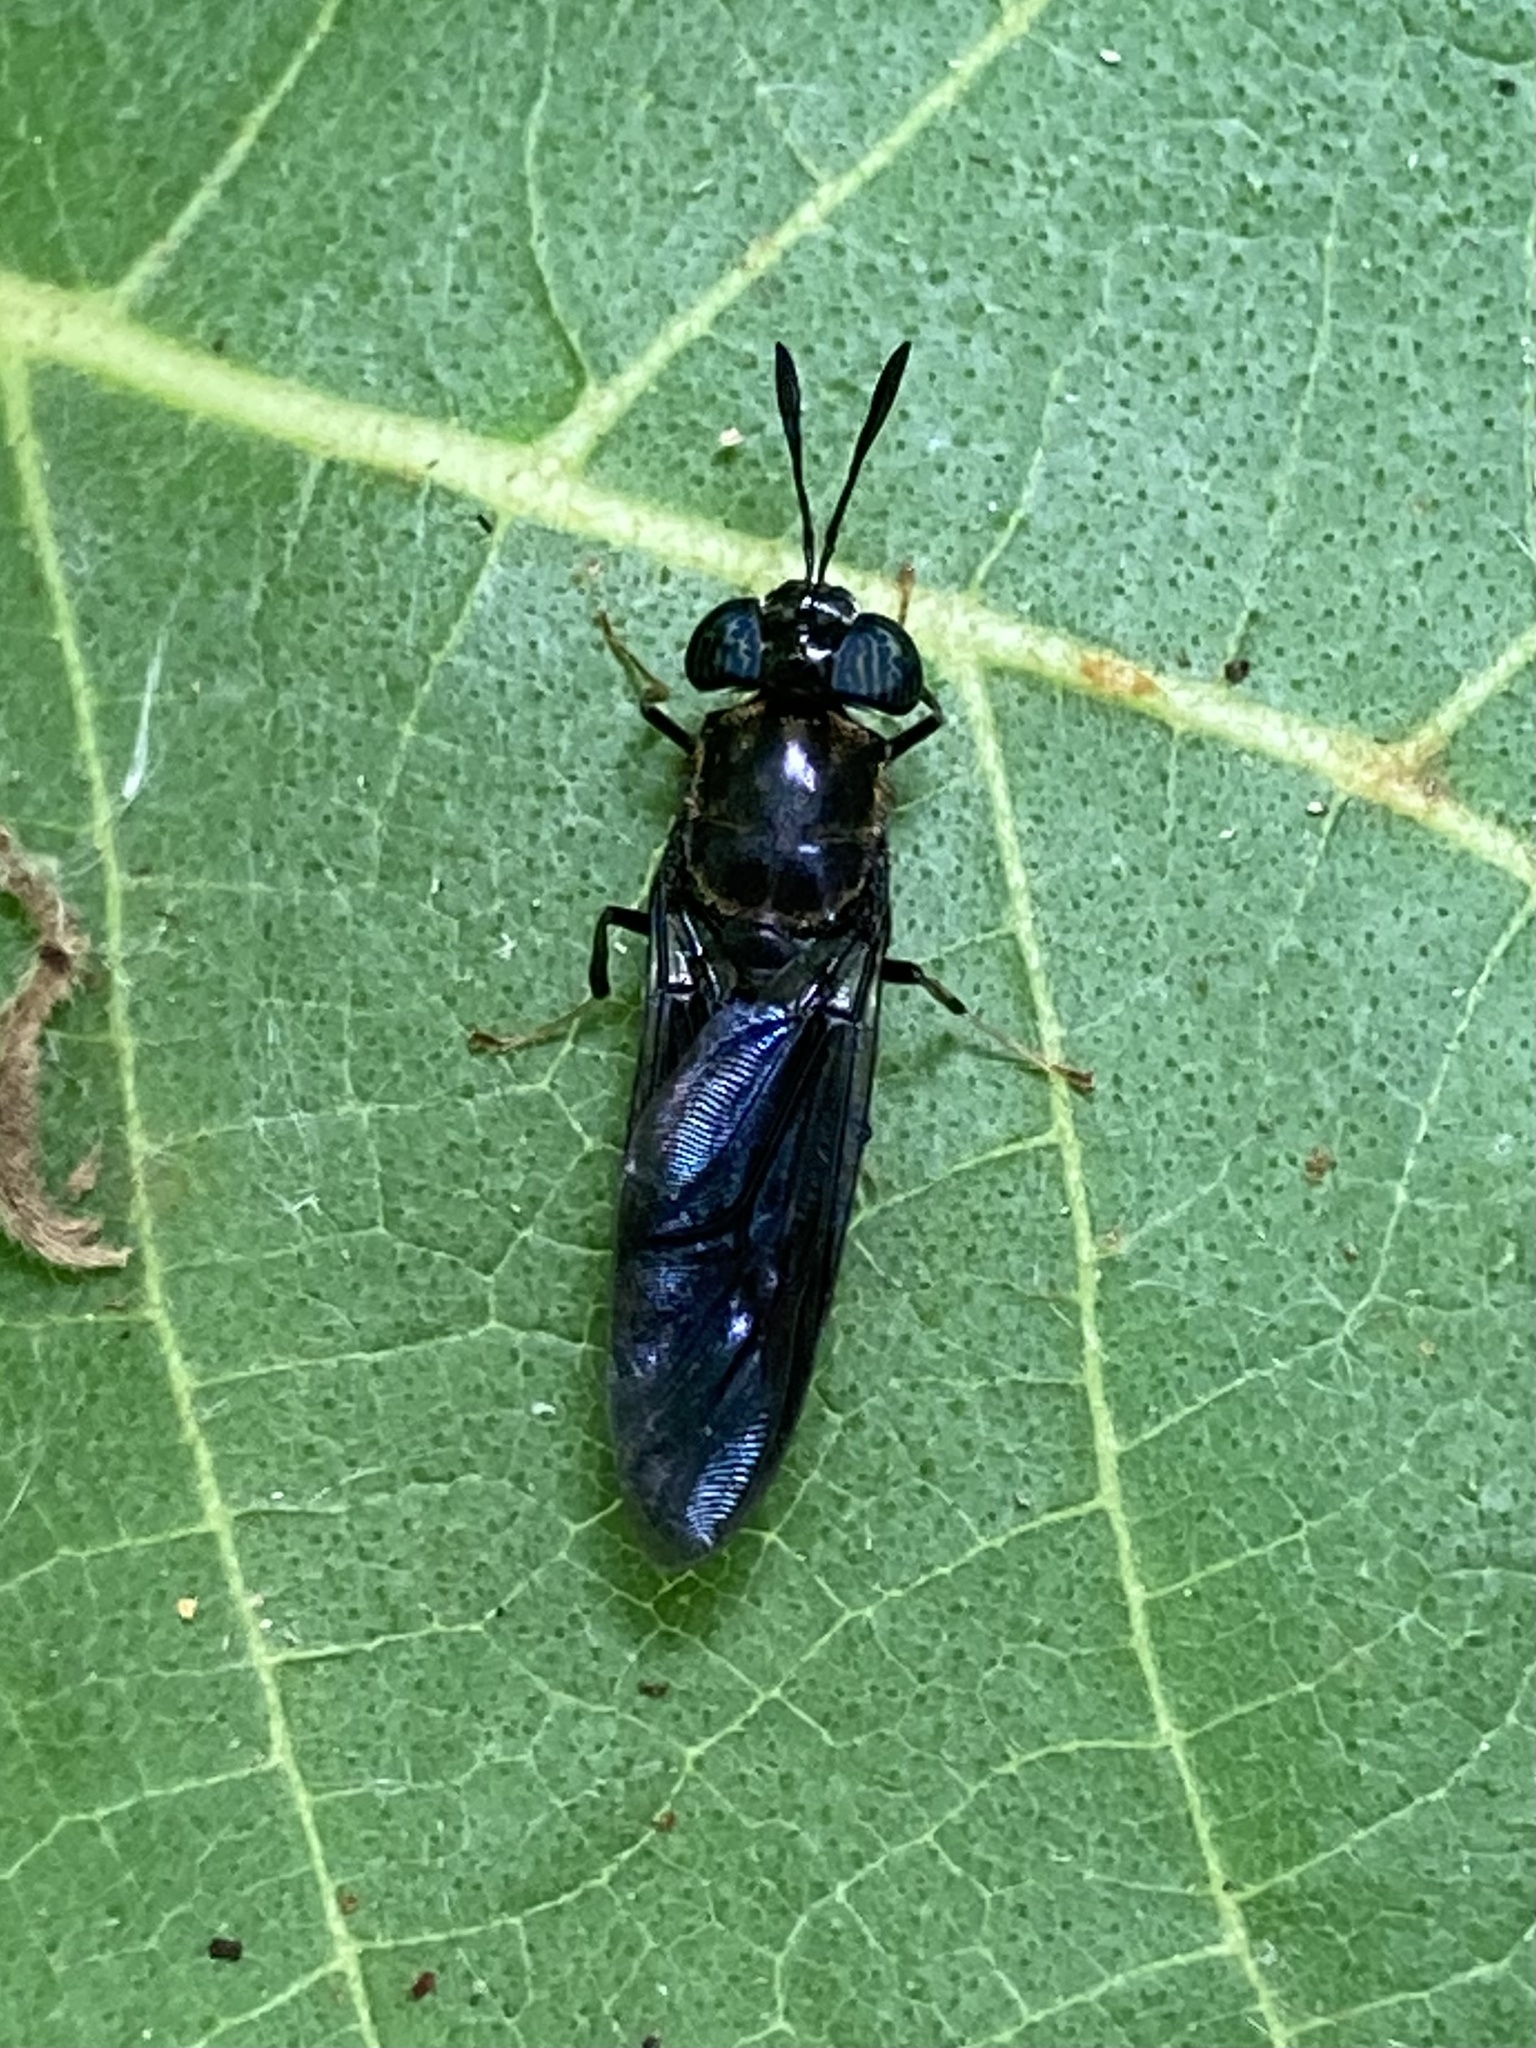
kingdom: Animalia
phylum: Arthropoda
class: Insecta
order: Diptera
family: Stratiomyidae
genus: Hermetia
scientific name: Hermetia illucens
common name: Black soldier fly
